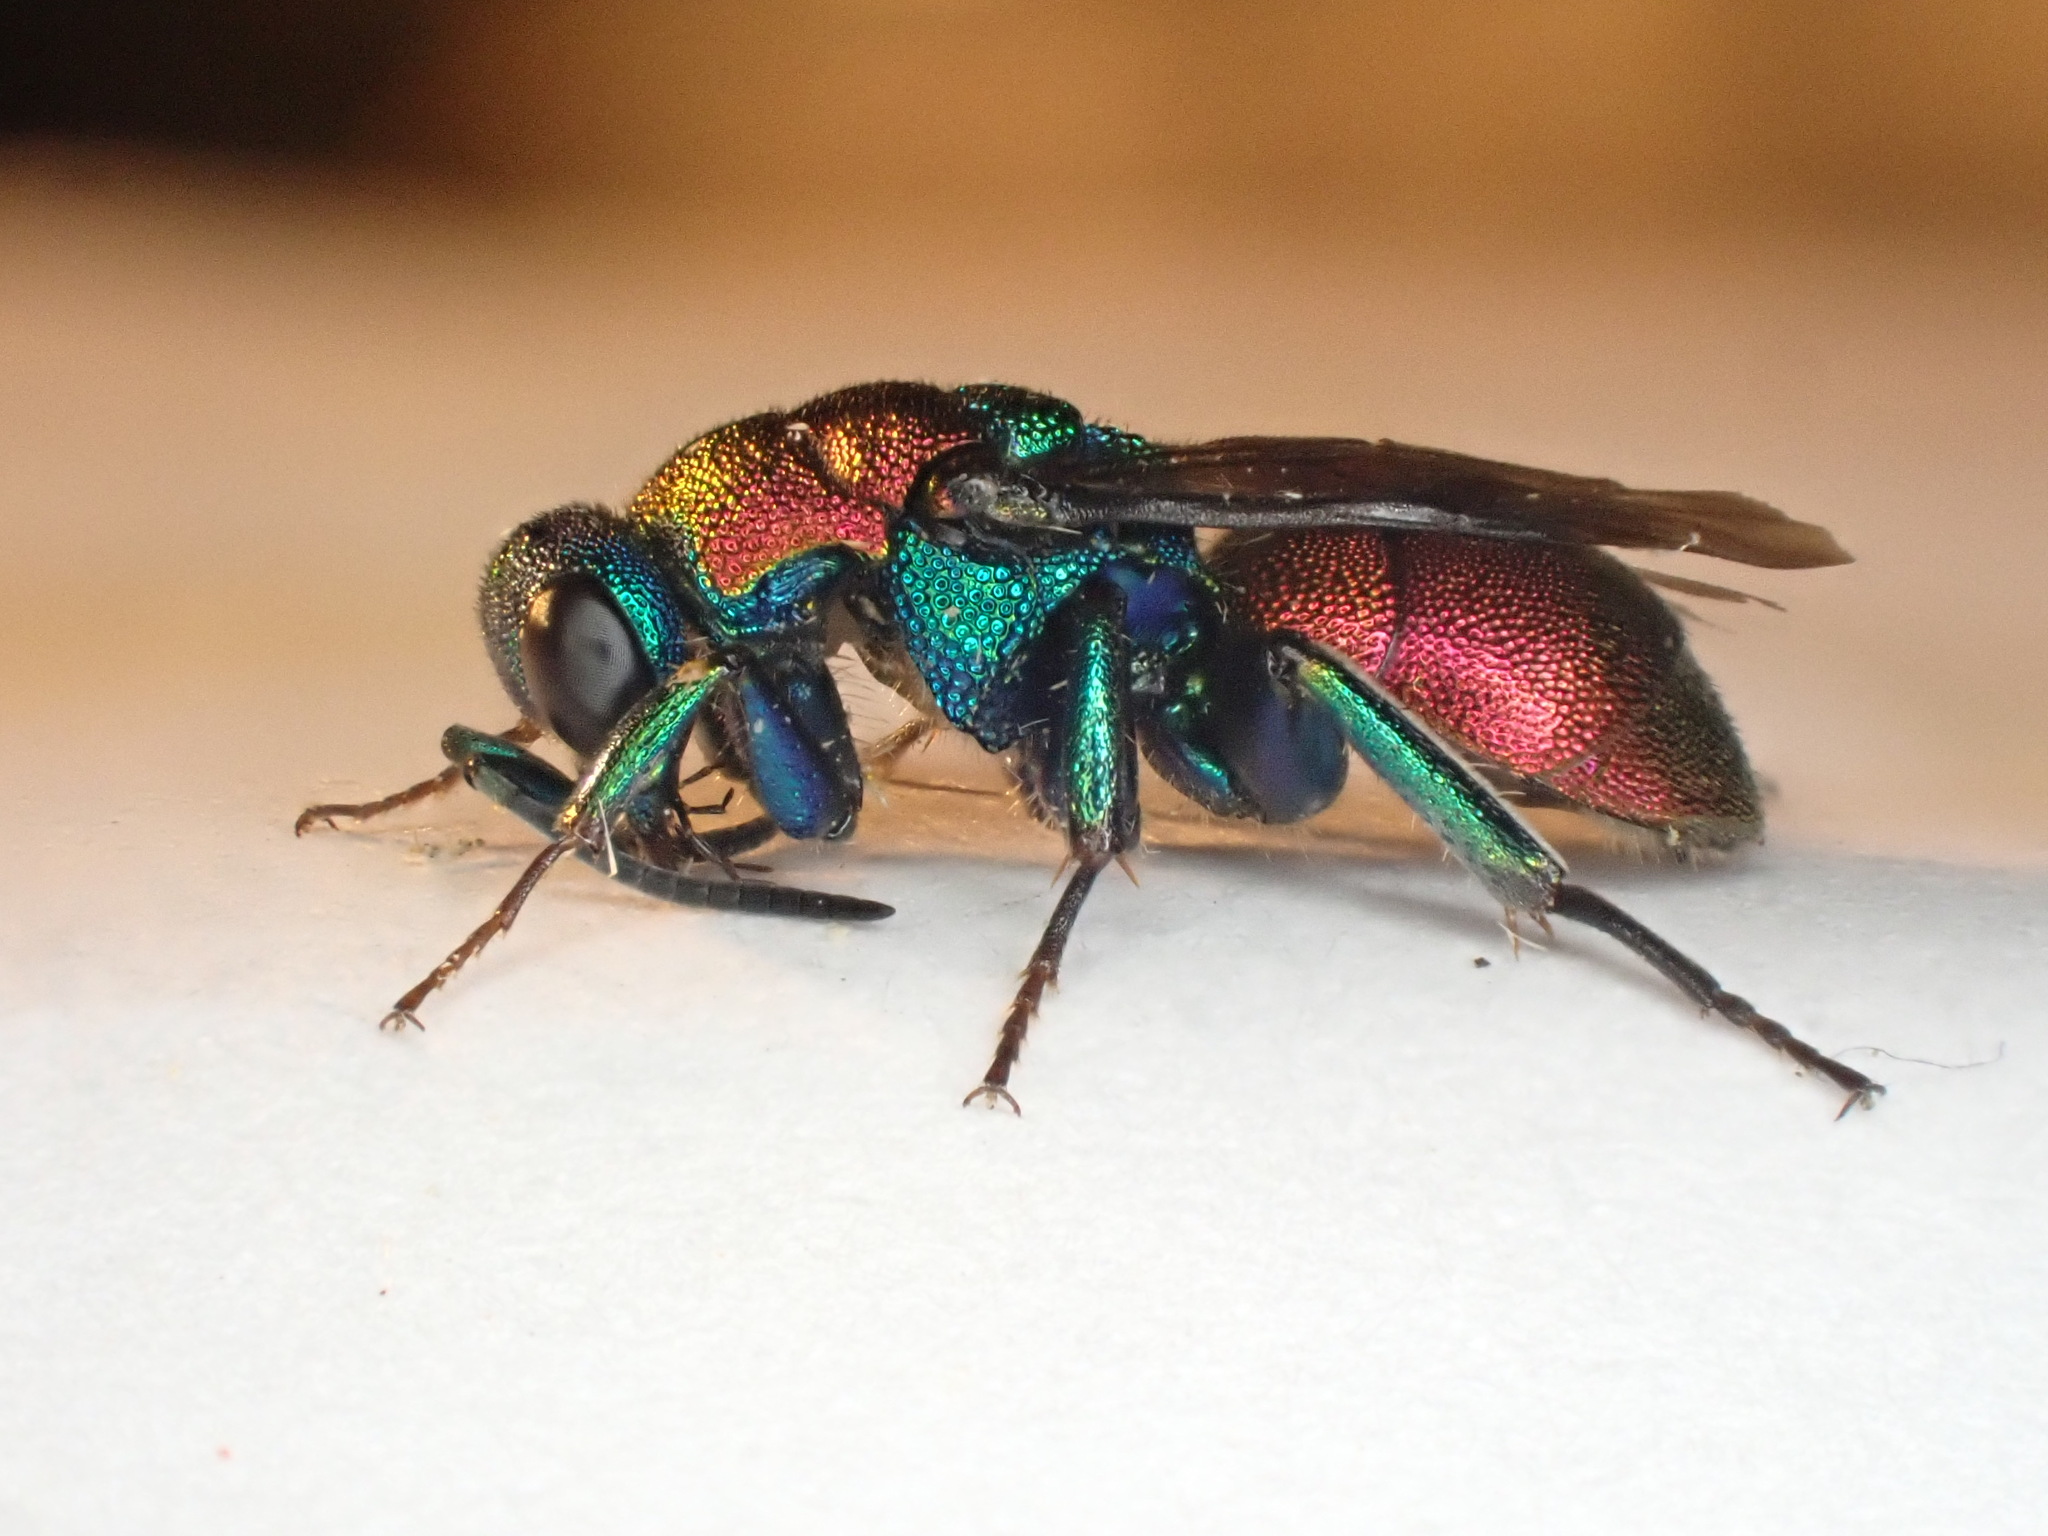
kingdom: Animalia
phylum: Arthropoda
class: Insecta
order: Hymenoptera
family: Chrysididae
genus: Hedychrum
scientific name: Hedychrum
